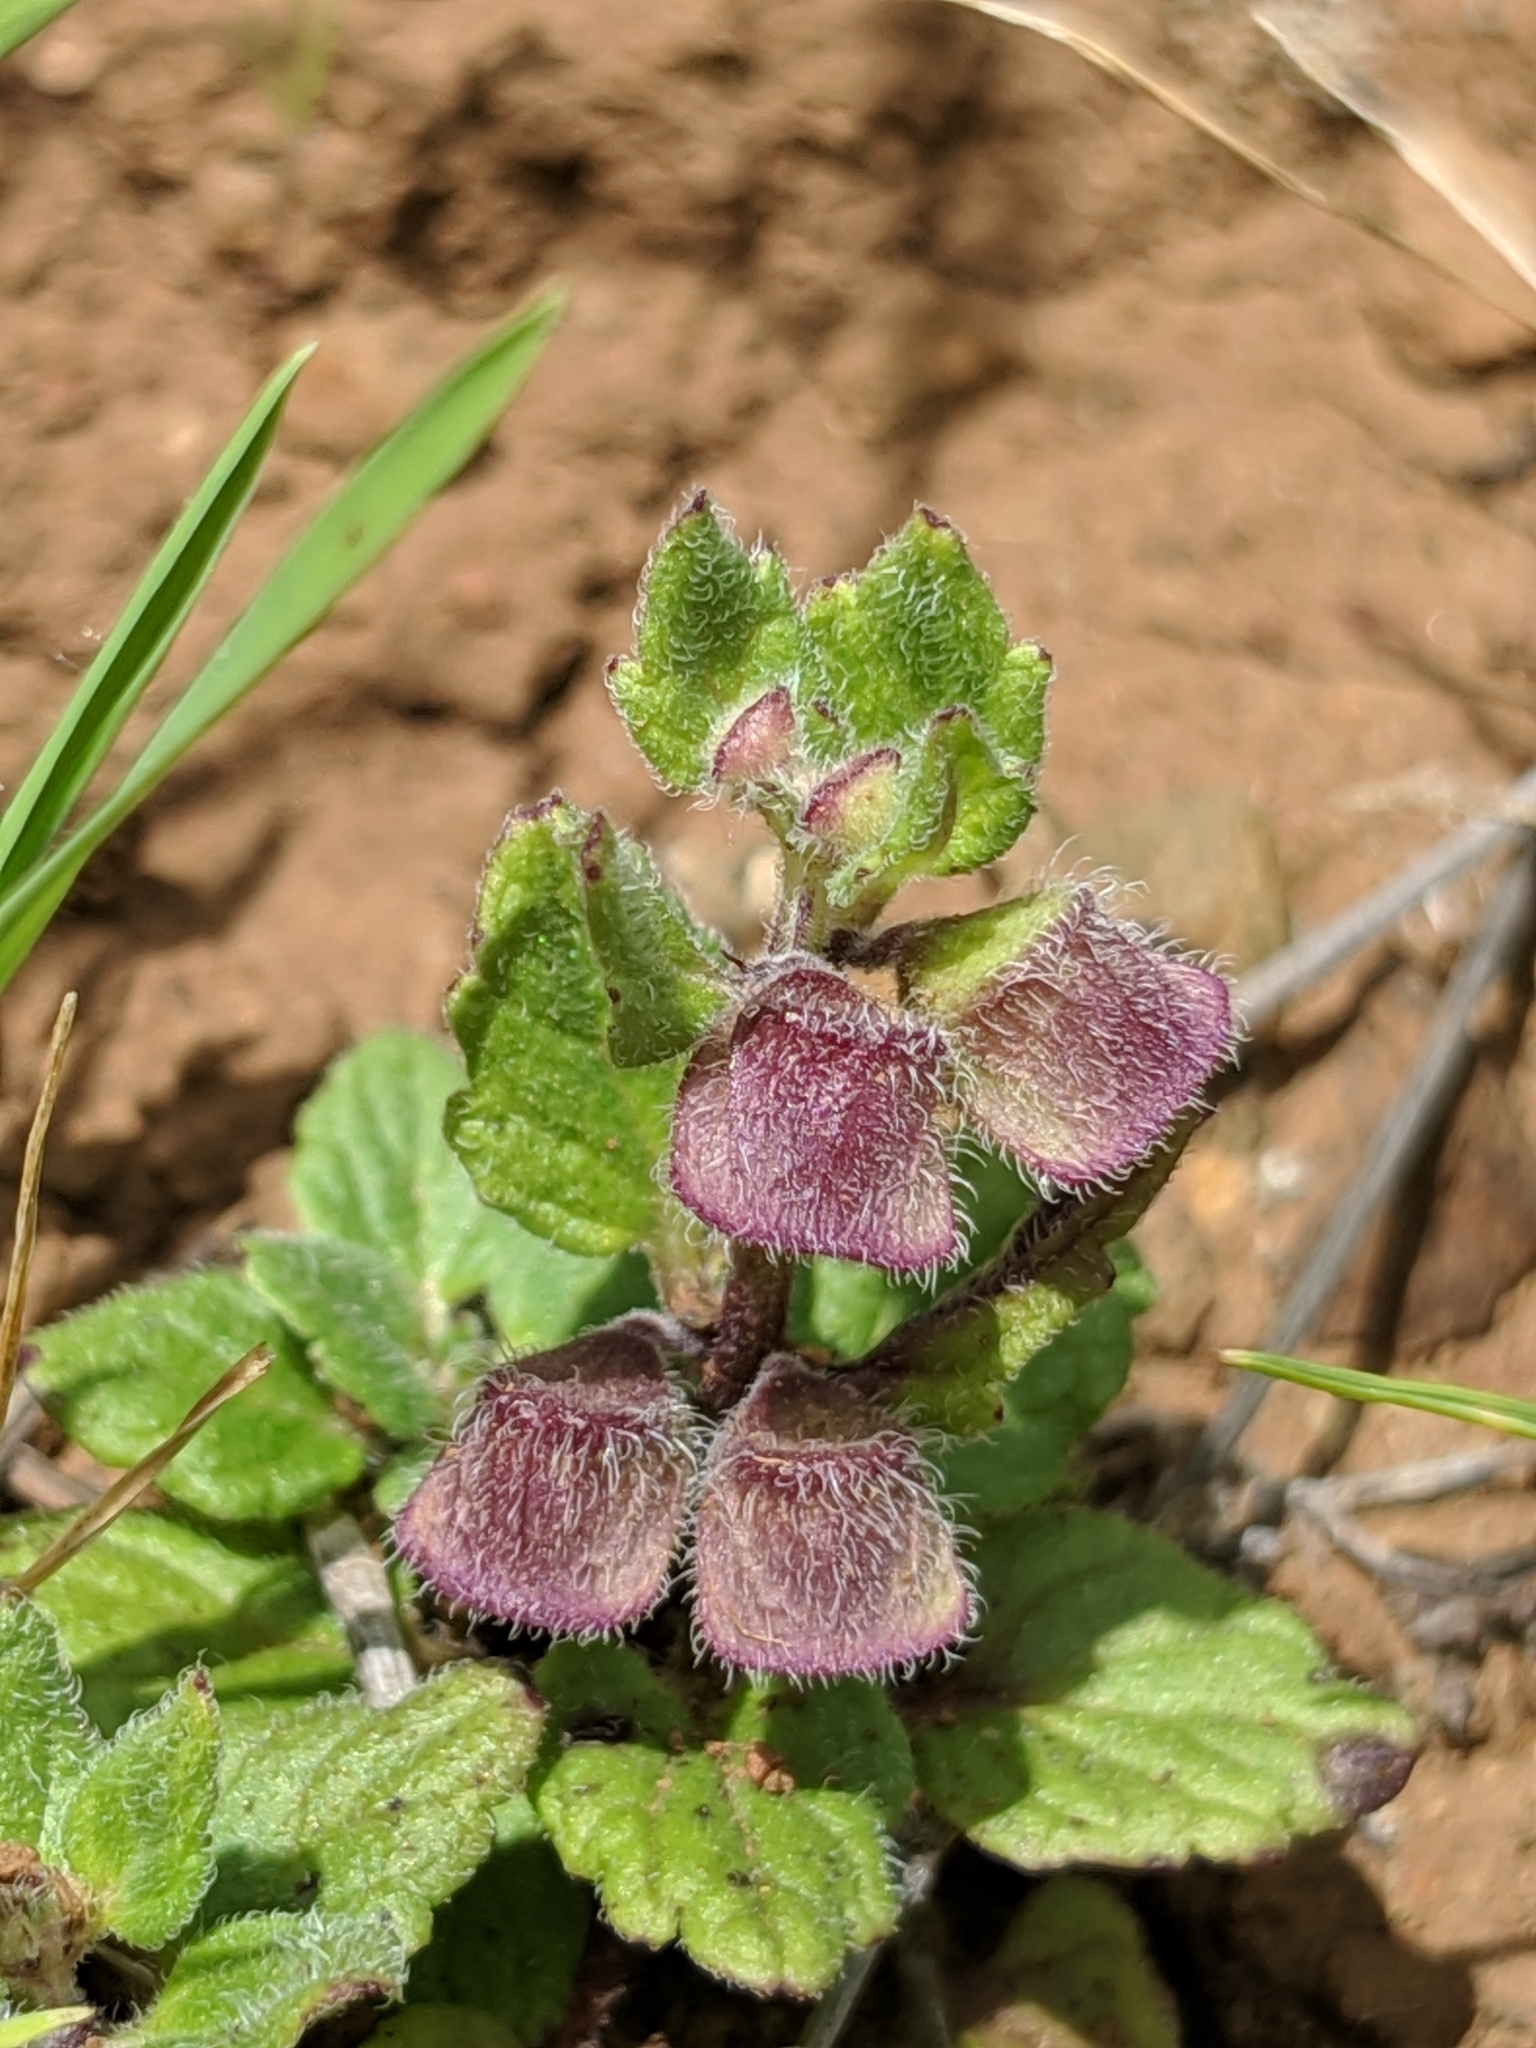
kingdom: Plantae
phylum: Tracheophyta
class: Magnoliopsida
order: Lamiales
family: Lamiaceae
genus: Scutellaria
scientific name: Scutellaria tuberosa
